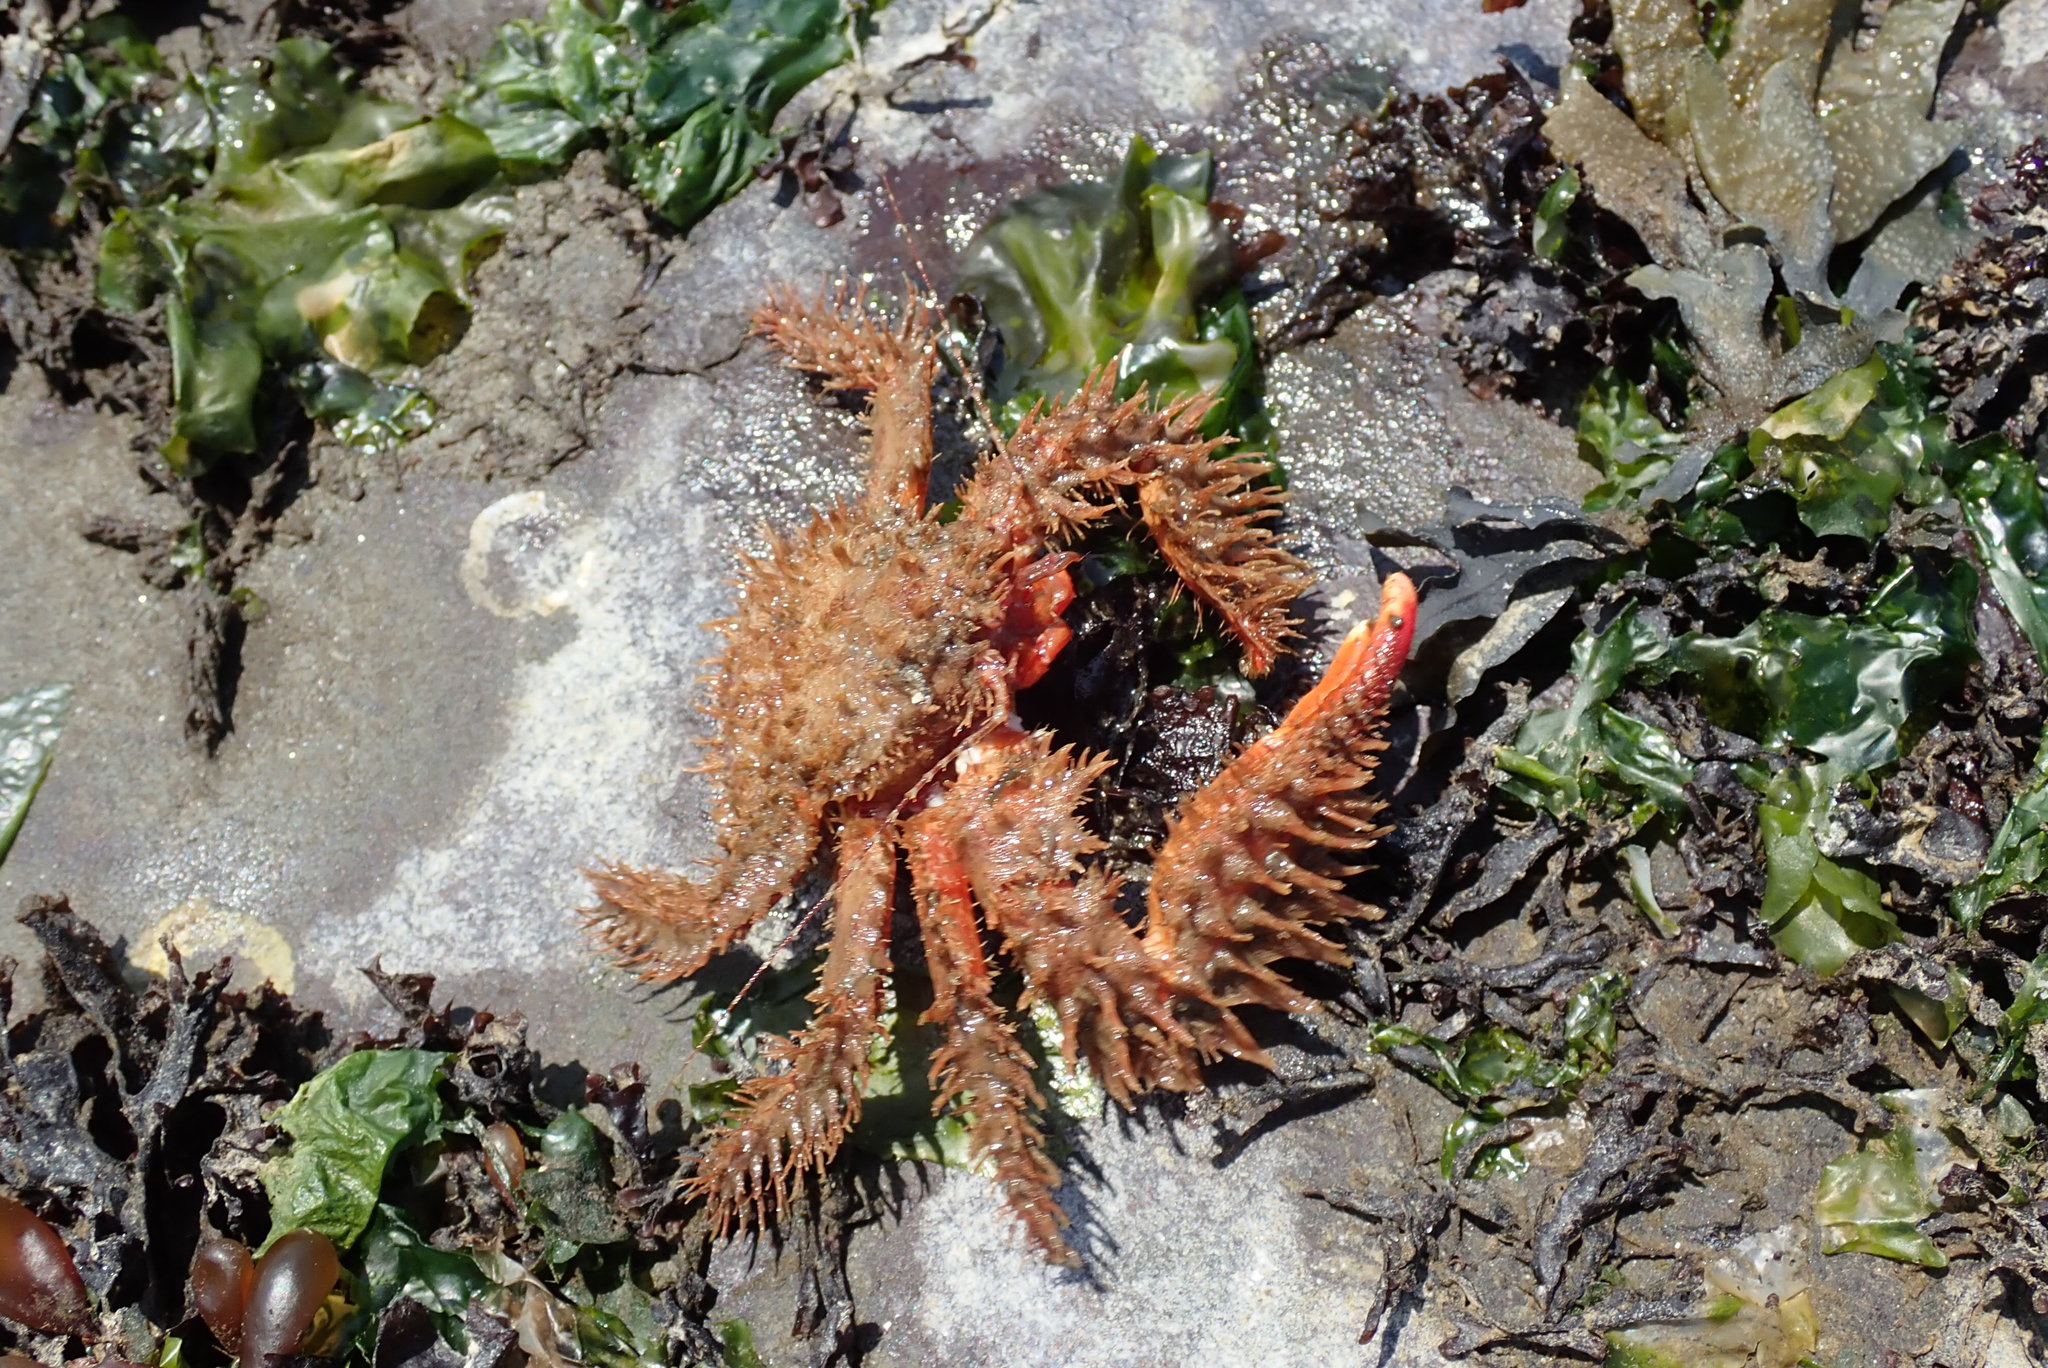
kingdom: Animalia
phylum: Arthropoda
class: Malacostraca
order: Decapoda
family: Hapalogastridae
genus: Hapalogaster
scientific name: Hapalogaster mertensii
